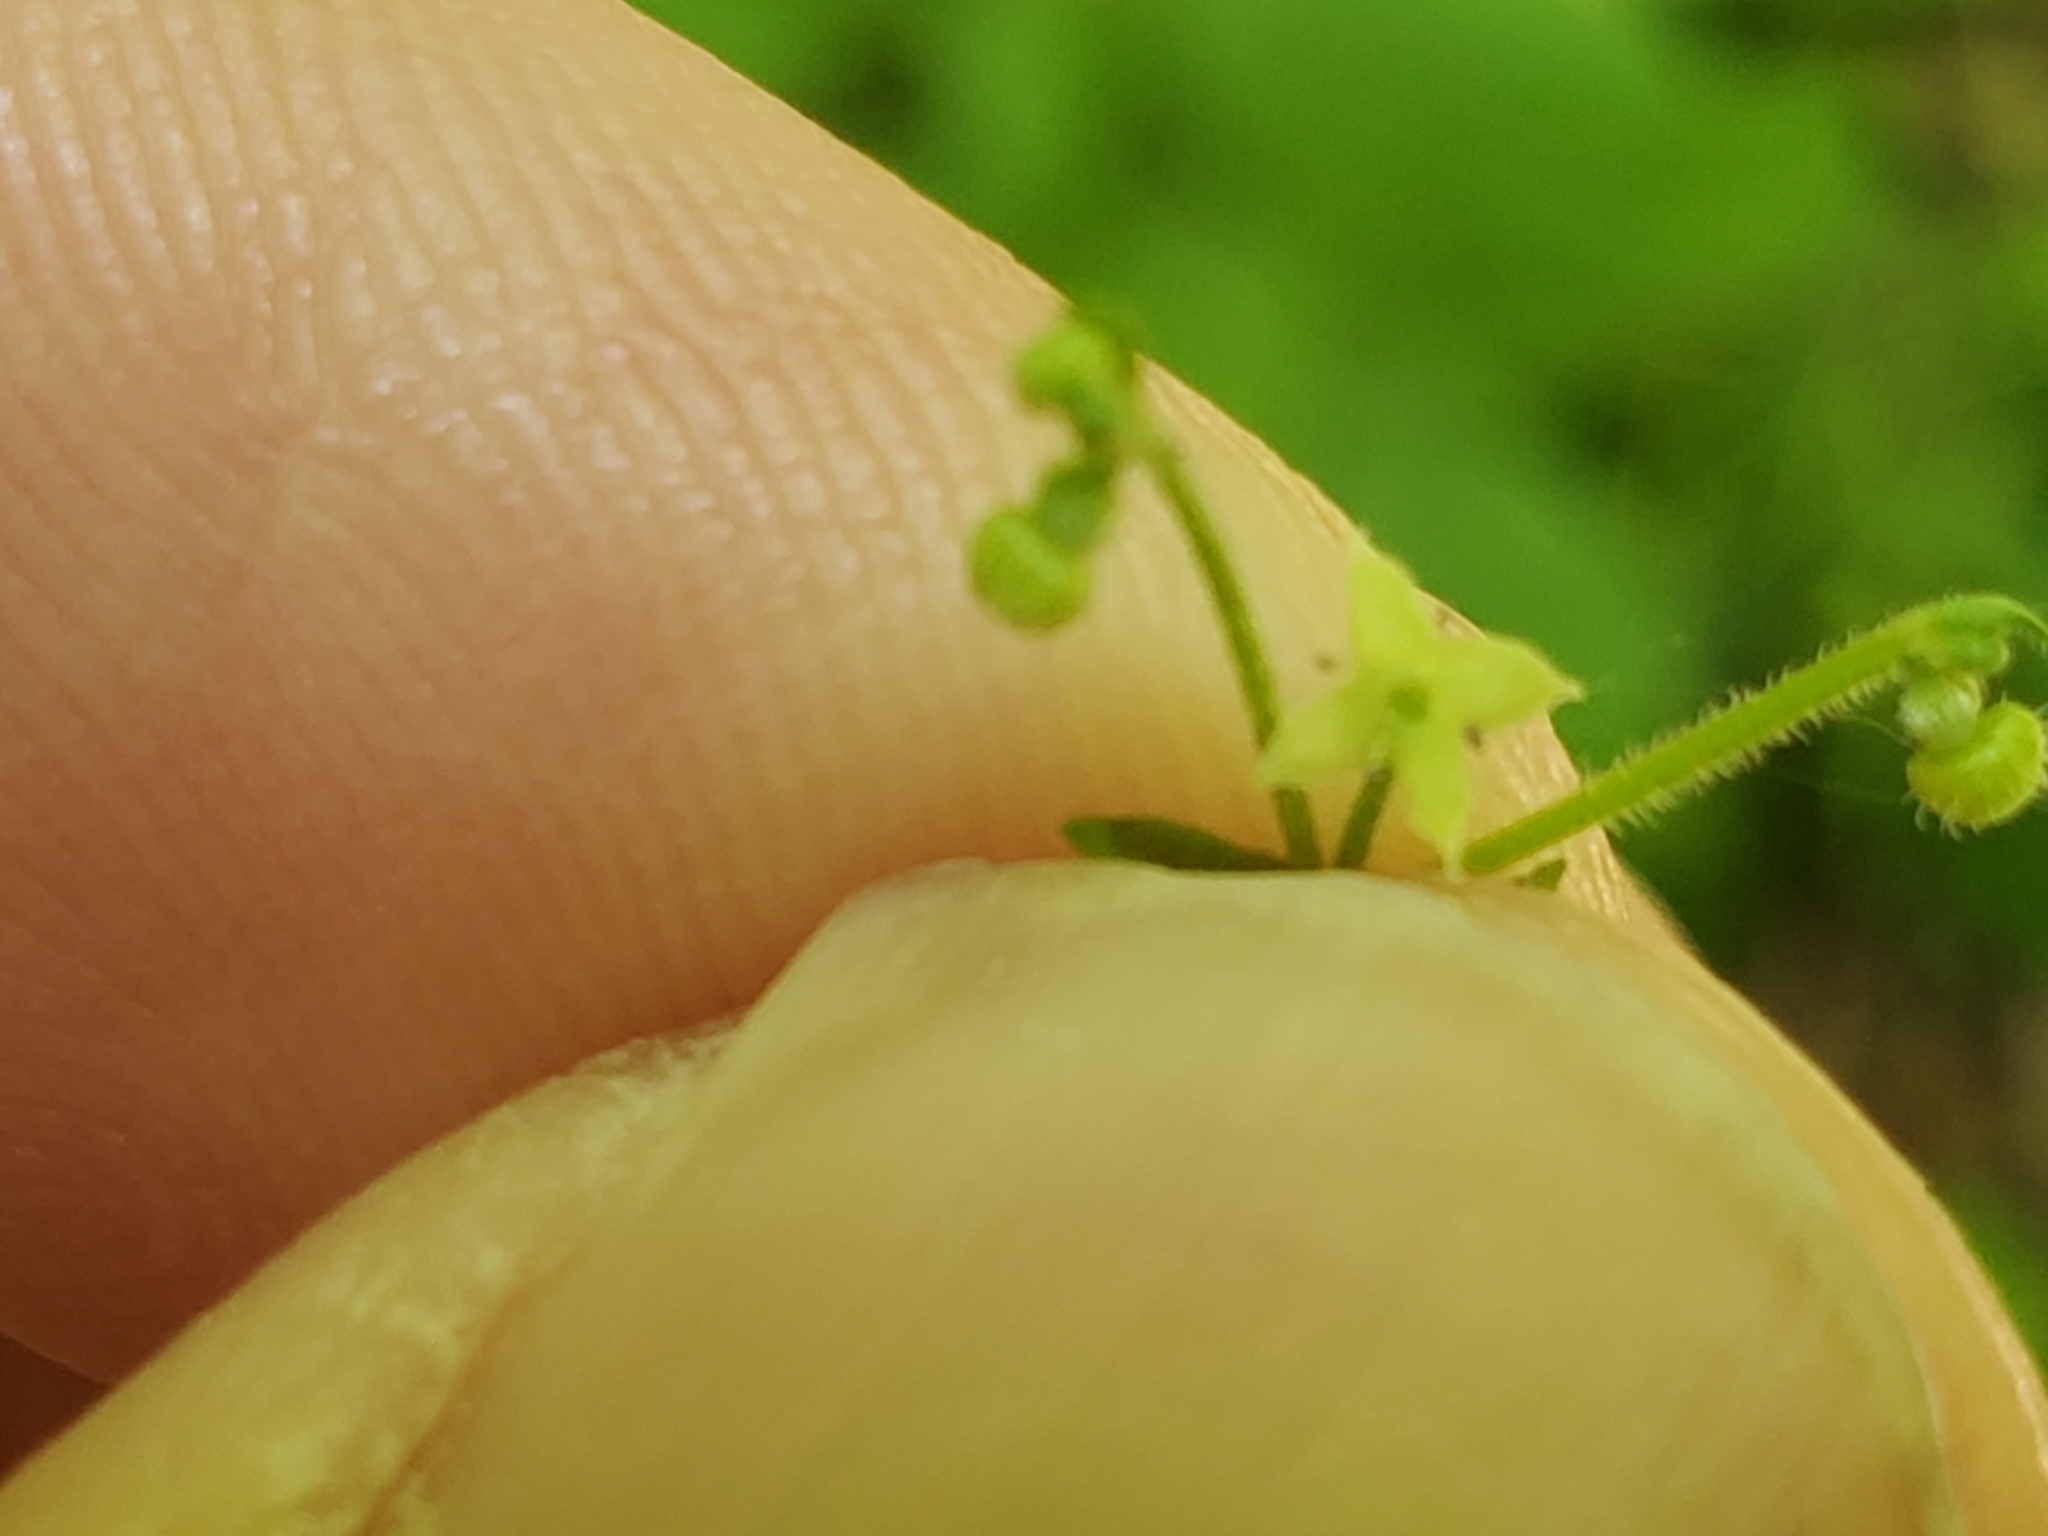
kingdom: Plantae
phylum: Tracheophyta
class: Magnoliopsida
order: Gentianales
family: Rubiaceae
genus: Galium
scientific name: Galium circaezans
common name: Forest bedstraw
